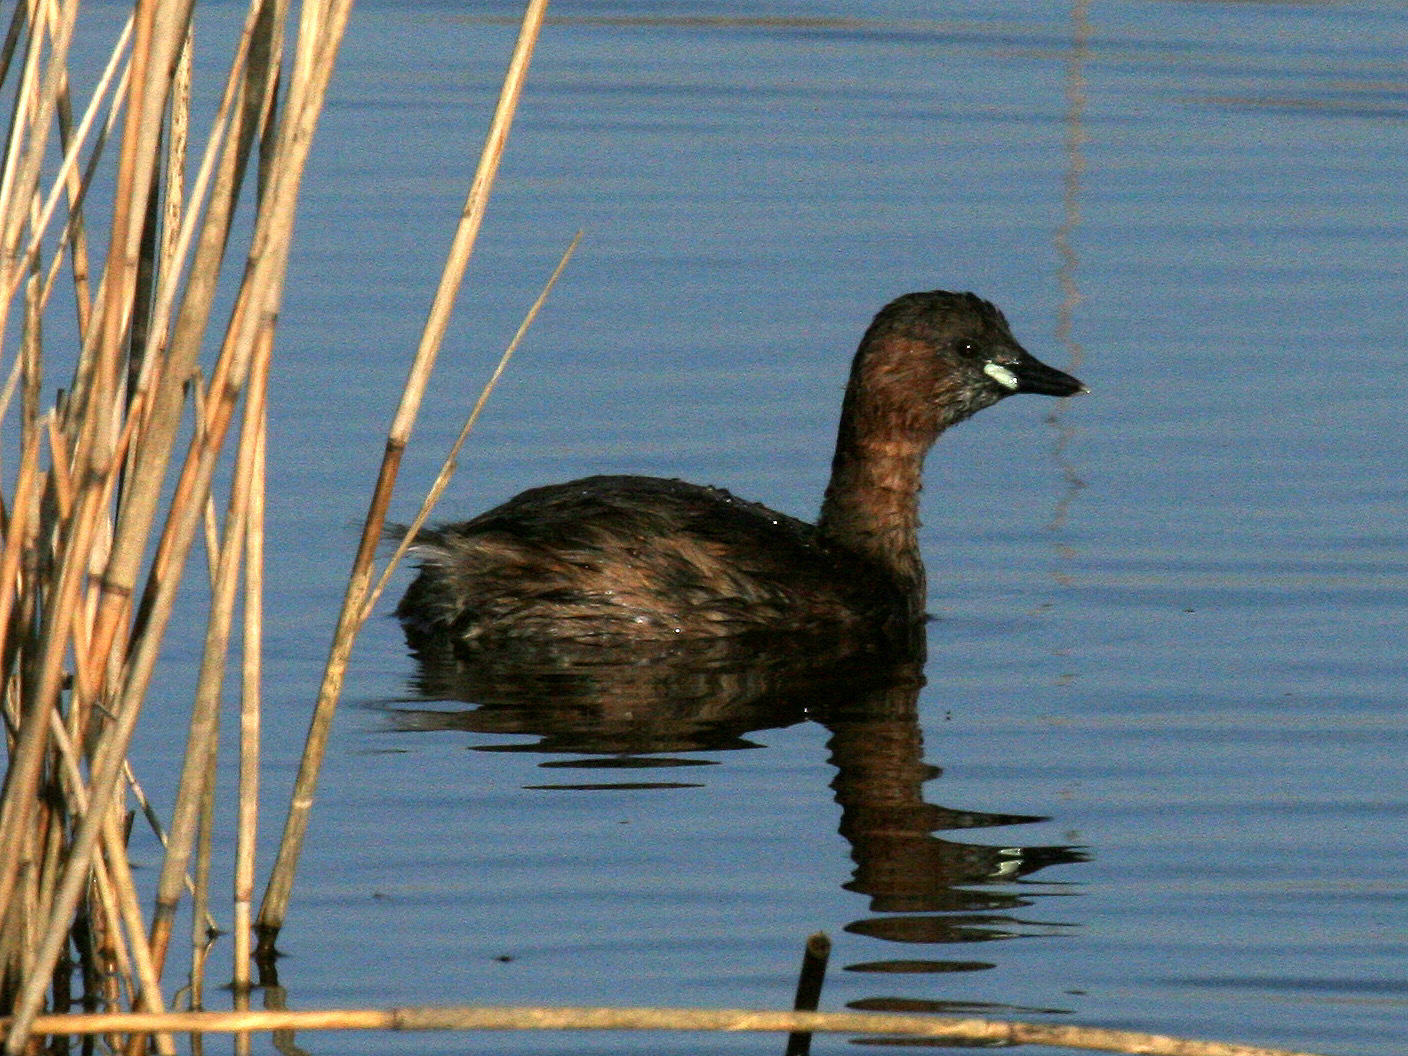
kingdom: Animalia
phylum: Chordata
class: Aves
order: Podicipediformes
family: Podicipedidae
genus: Tachybaptus
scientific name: Tachybaptus ruficollis
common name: Little grebe
